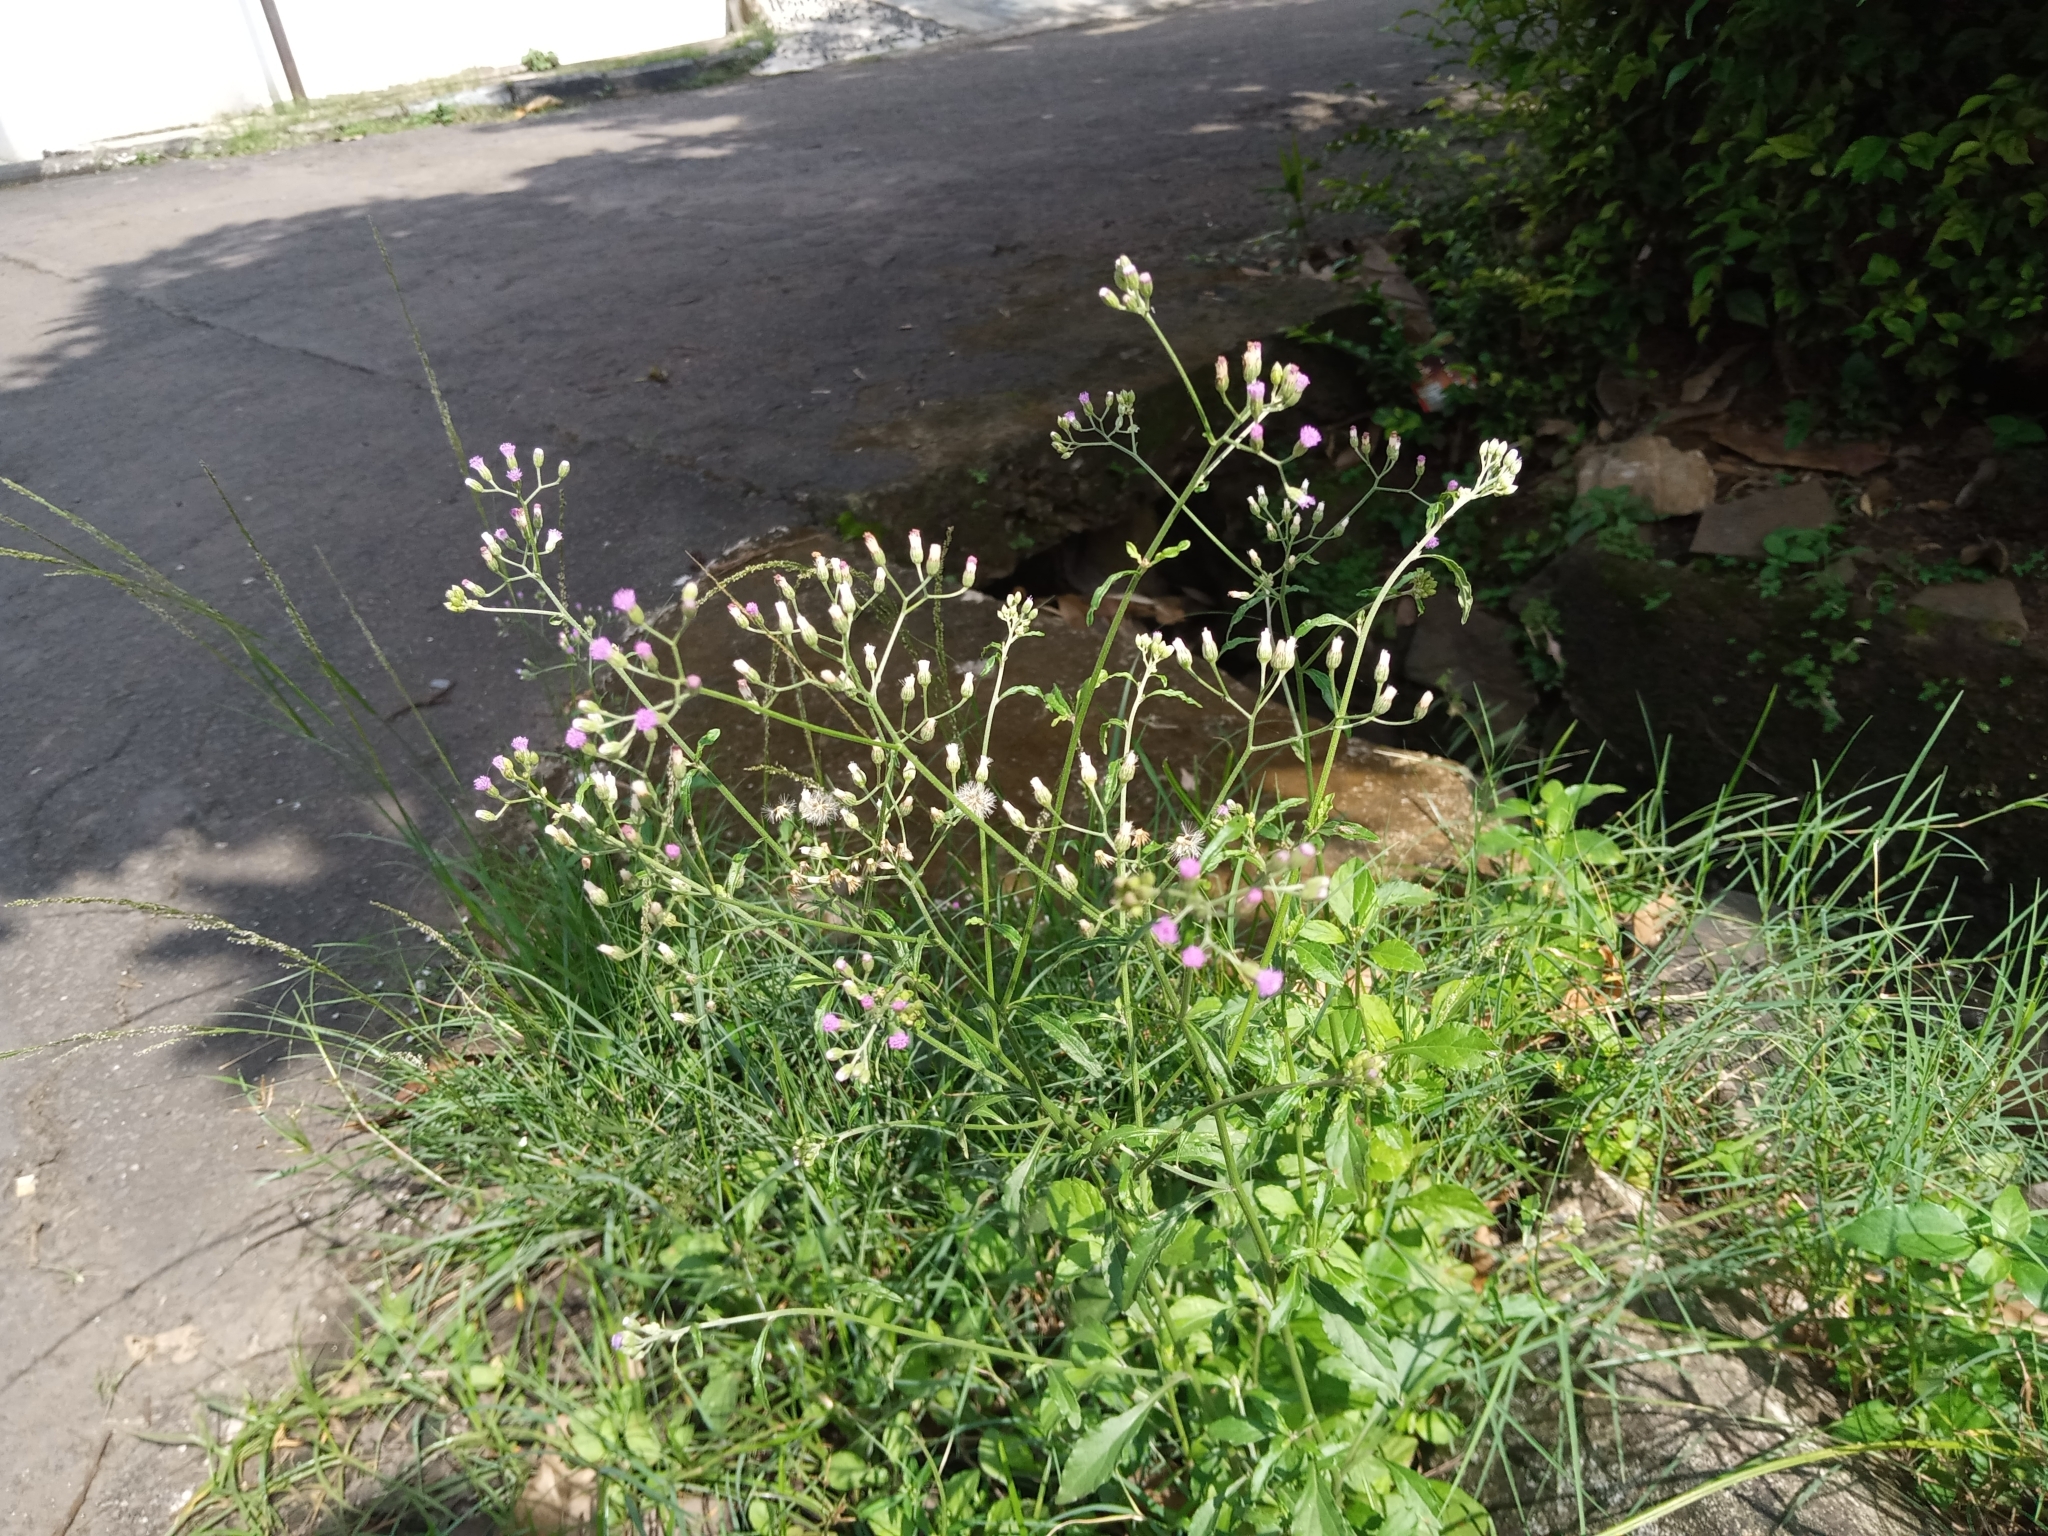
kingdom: Plantae
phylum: Tracheophyta
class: Magnoliopsida
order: Asterales
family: Asteraceae
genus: Cyanthillium
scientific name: Cyanthillium cinereum
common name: Little ironweed
